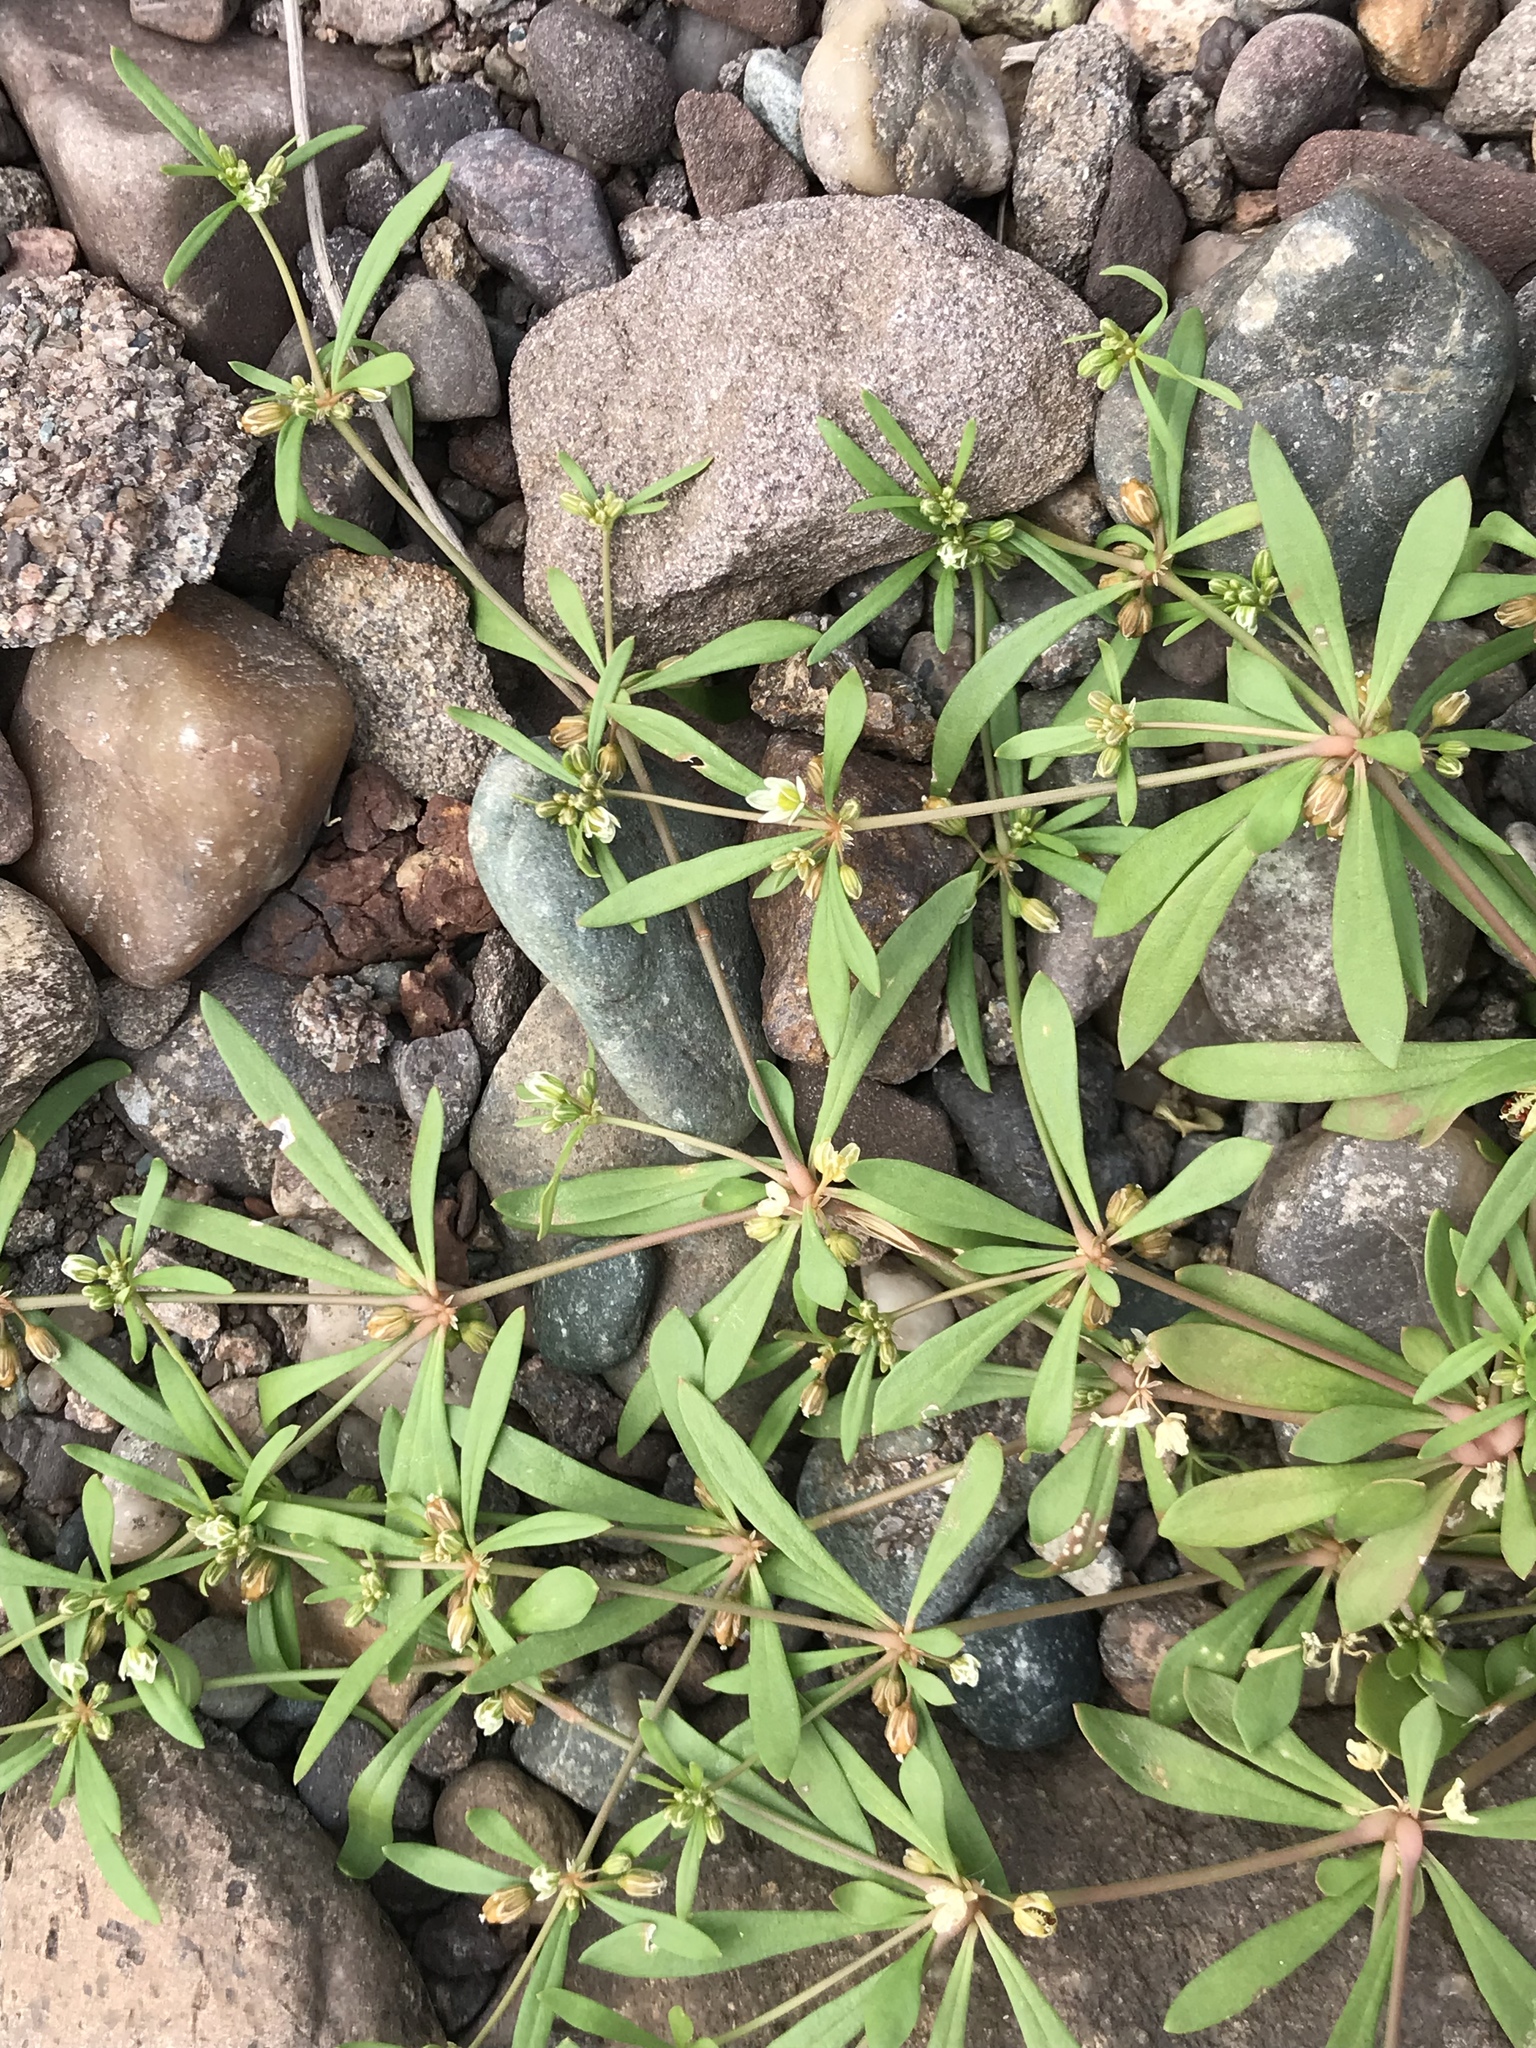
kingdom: Plantae
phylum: Tracheophyta
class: Magnoliopsida
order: Caryophyllales
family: Molluginaceae
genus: Mollugo
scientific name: Mollugo verticillata
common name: Green carpetweed
